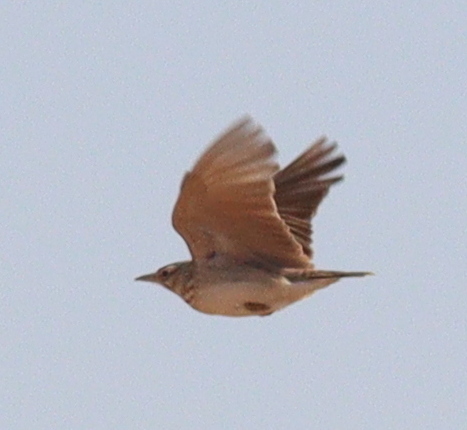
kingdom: Animalia
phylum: Chordata
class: Aves
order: Passeriformes
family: Alaudidae
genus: Galerida
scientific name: Galerida cristata
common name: Crested lark
